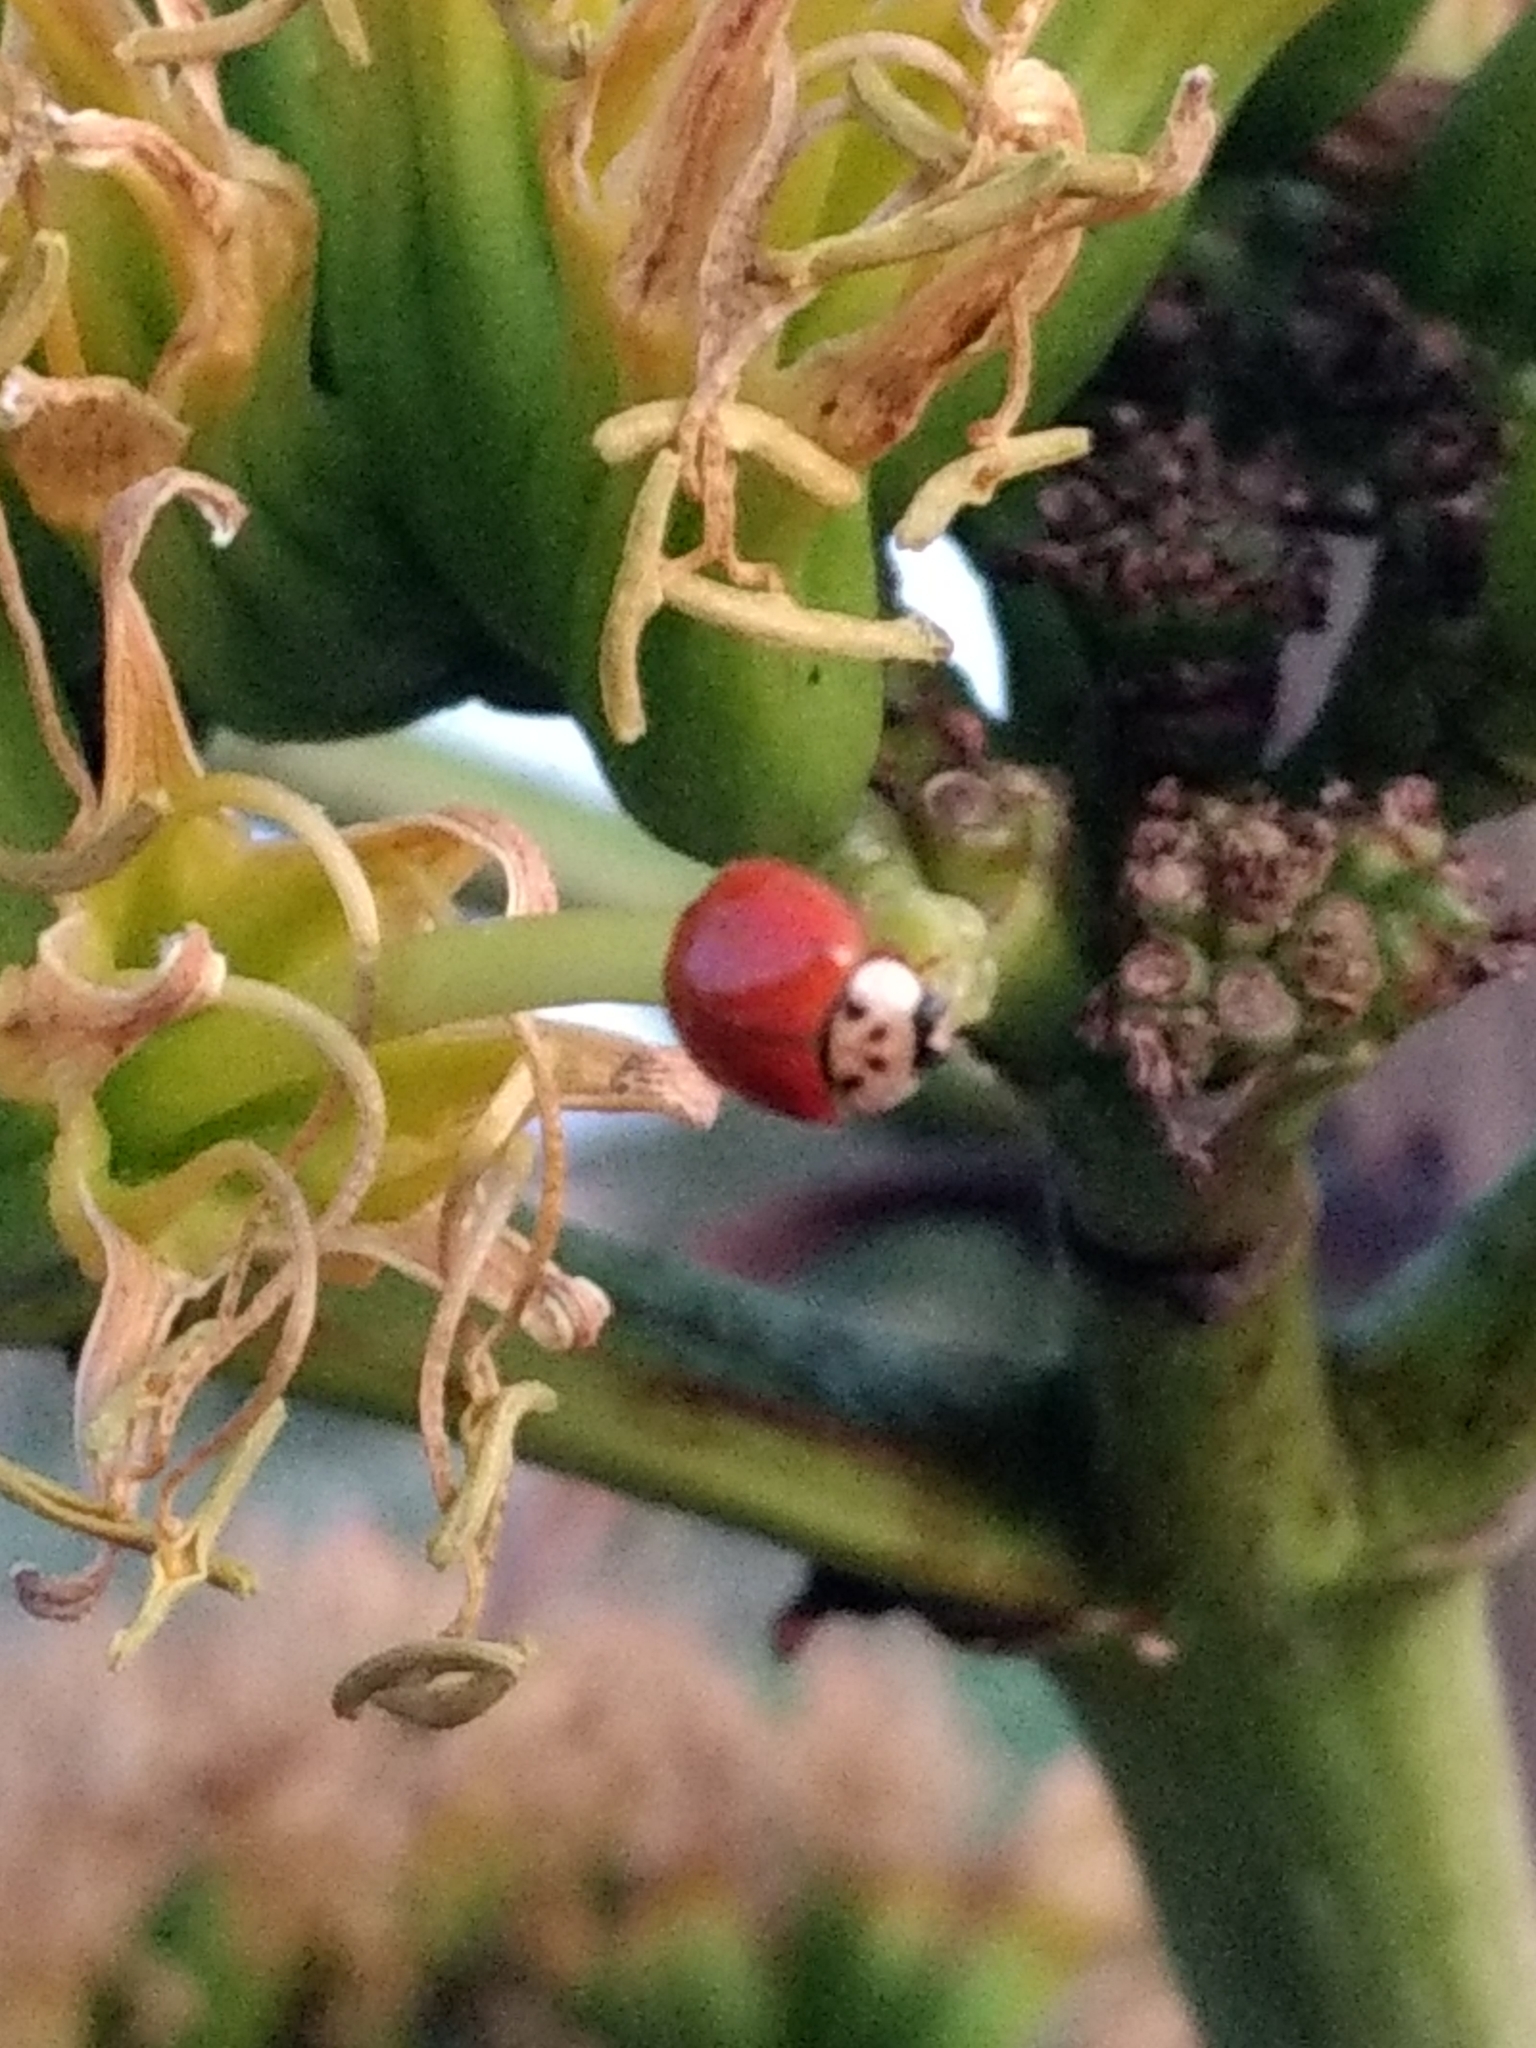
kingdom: Animalia
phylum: Arthropoda
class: Insecta
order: Coleoptera
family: Coccinellidae
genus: Harmonia
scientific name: Harmonia axyridis
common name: Harlequin ladybird
